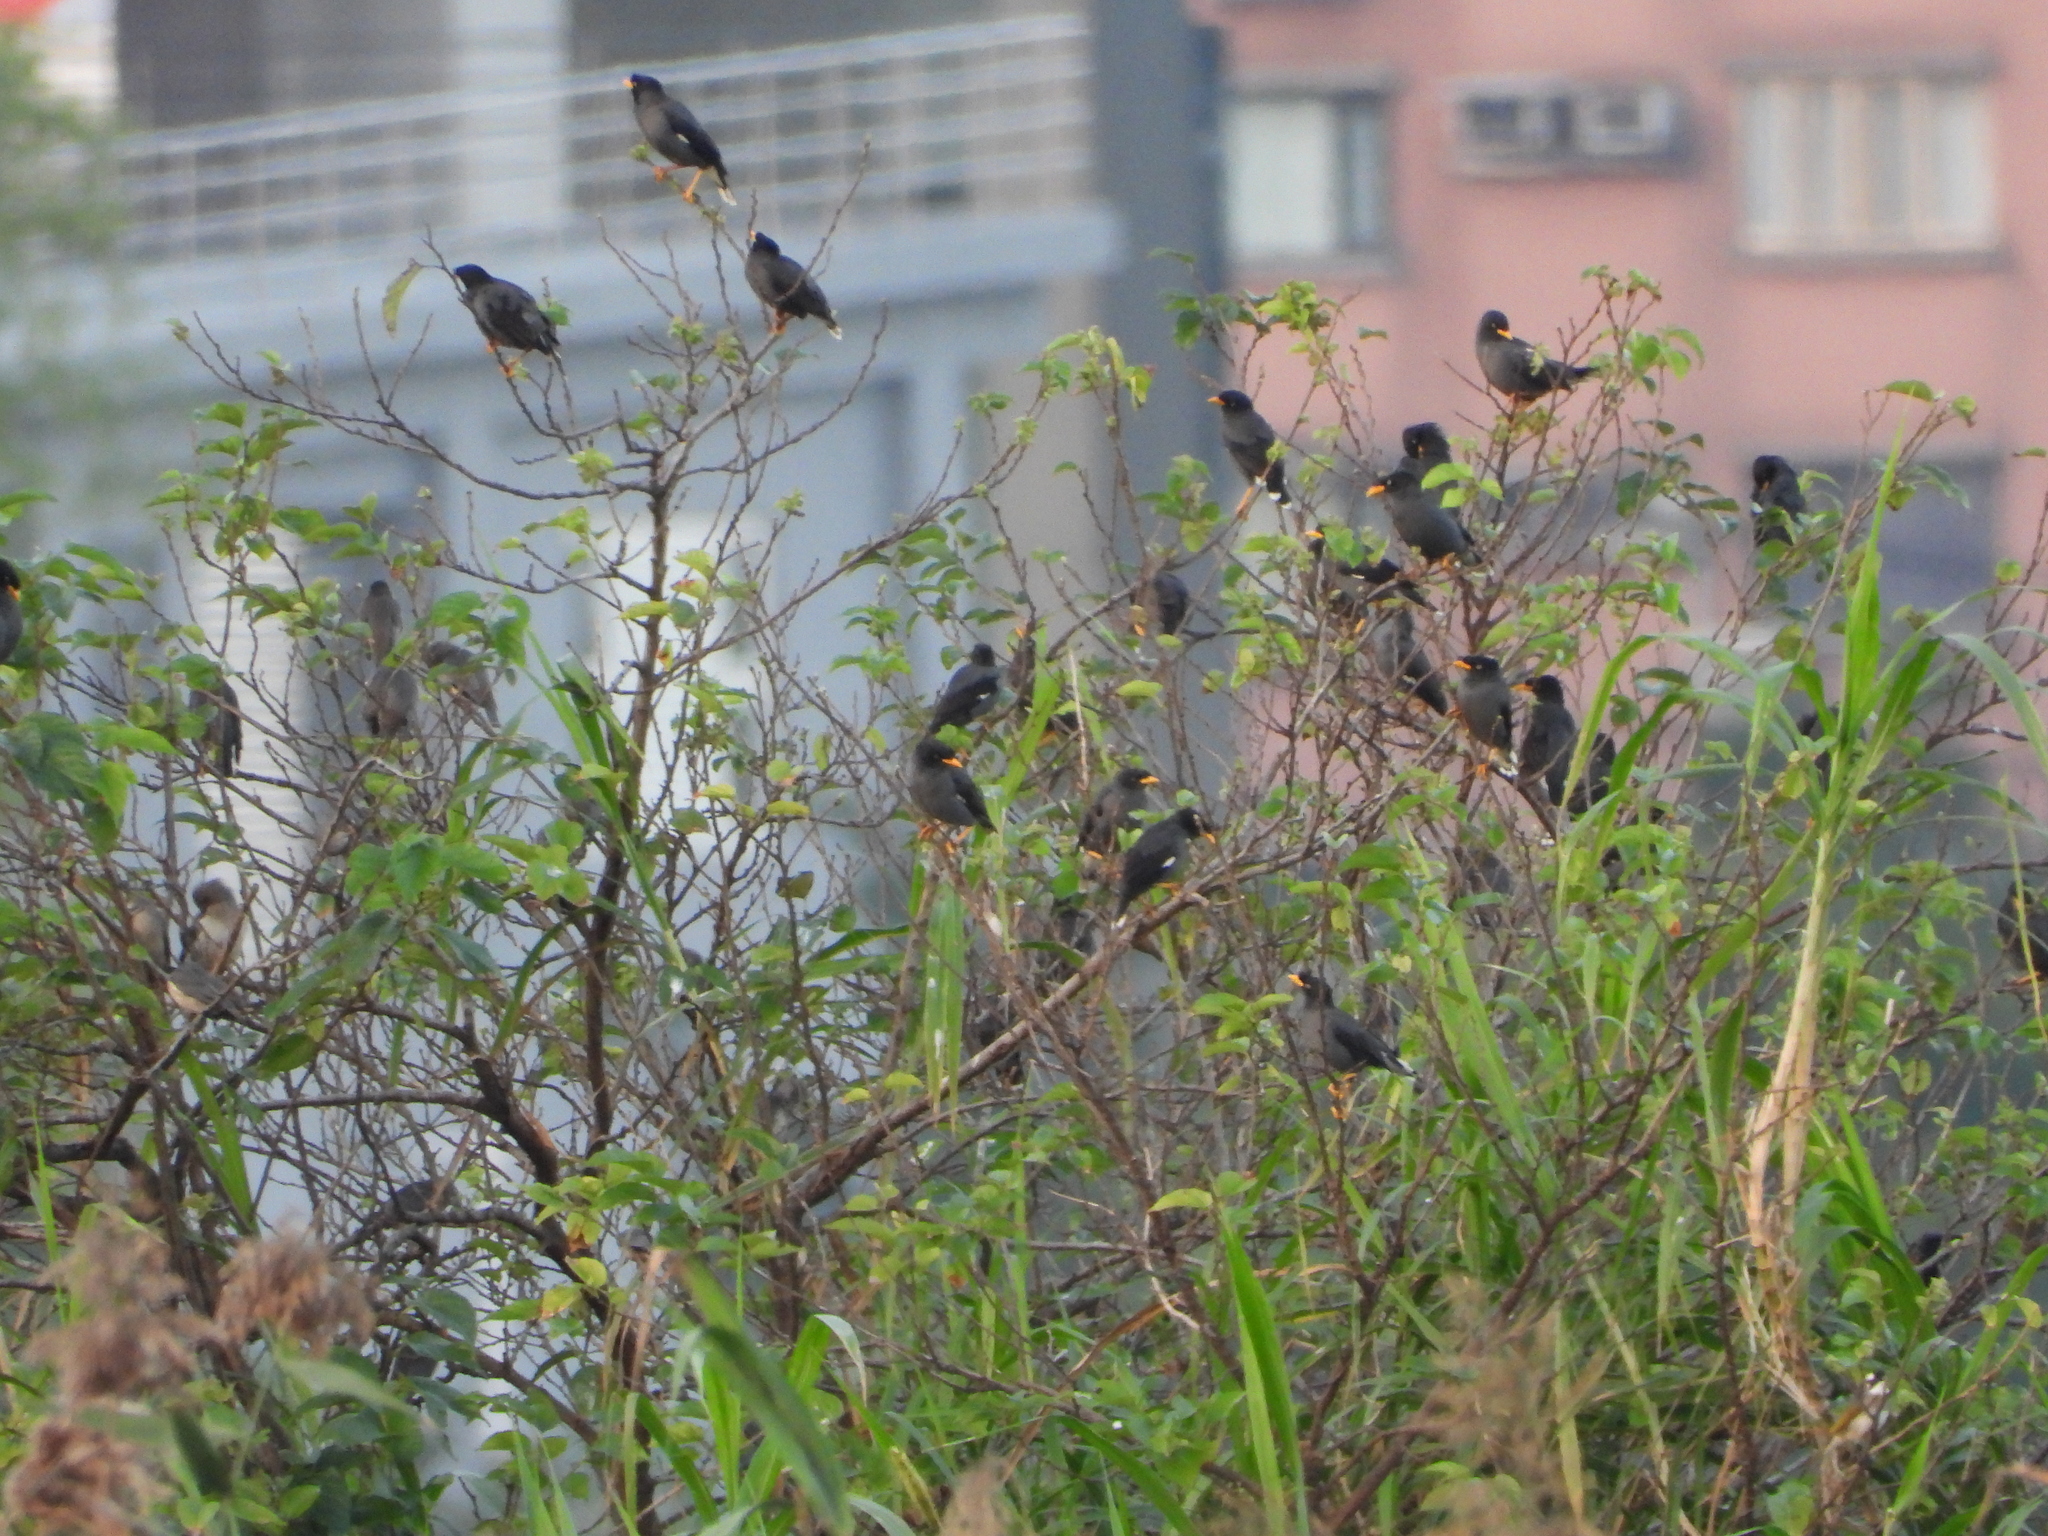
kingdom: Animalia
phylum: Chordata
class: Aves
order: Passeriformes
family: Sturnidae
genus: Acridotheres
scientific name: Acridotheres javanicus
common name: Javan myna
